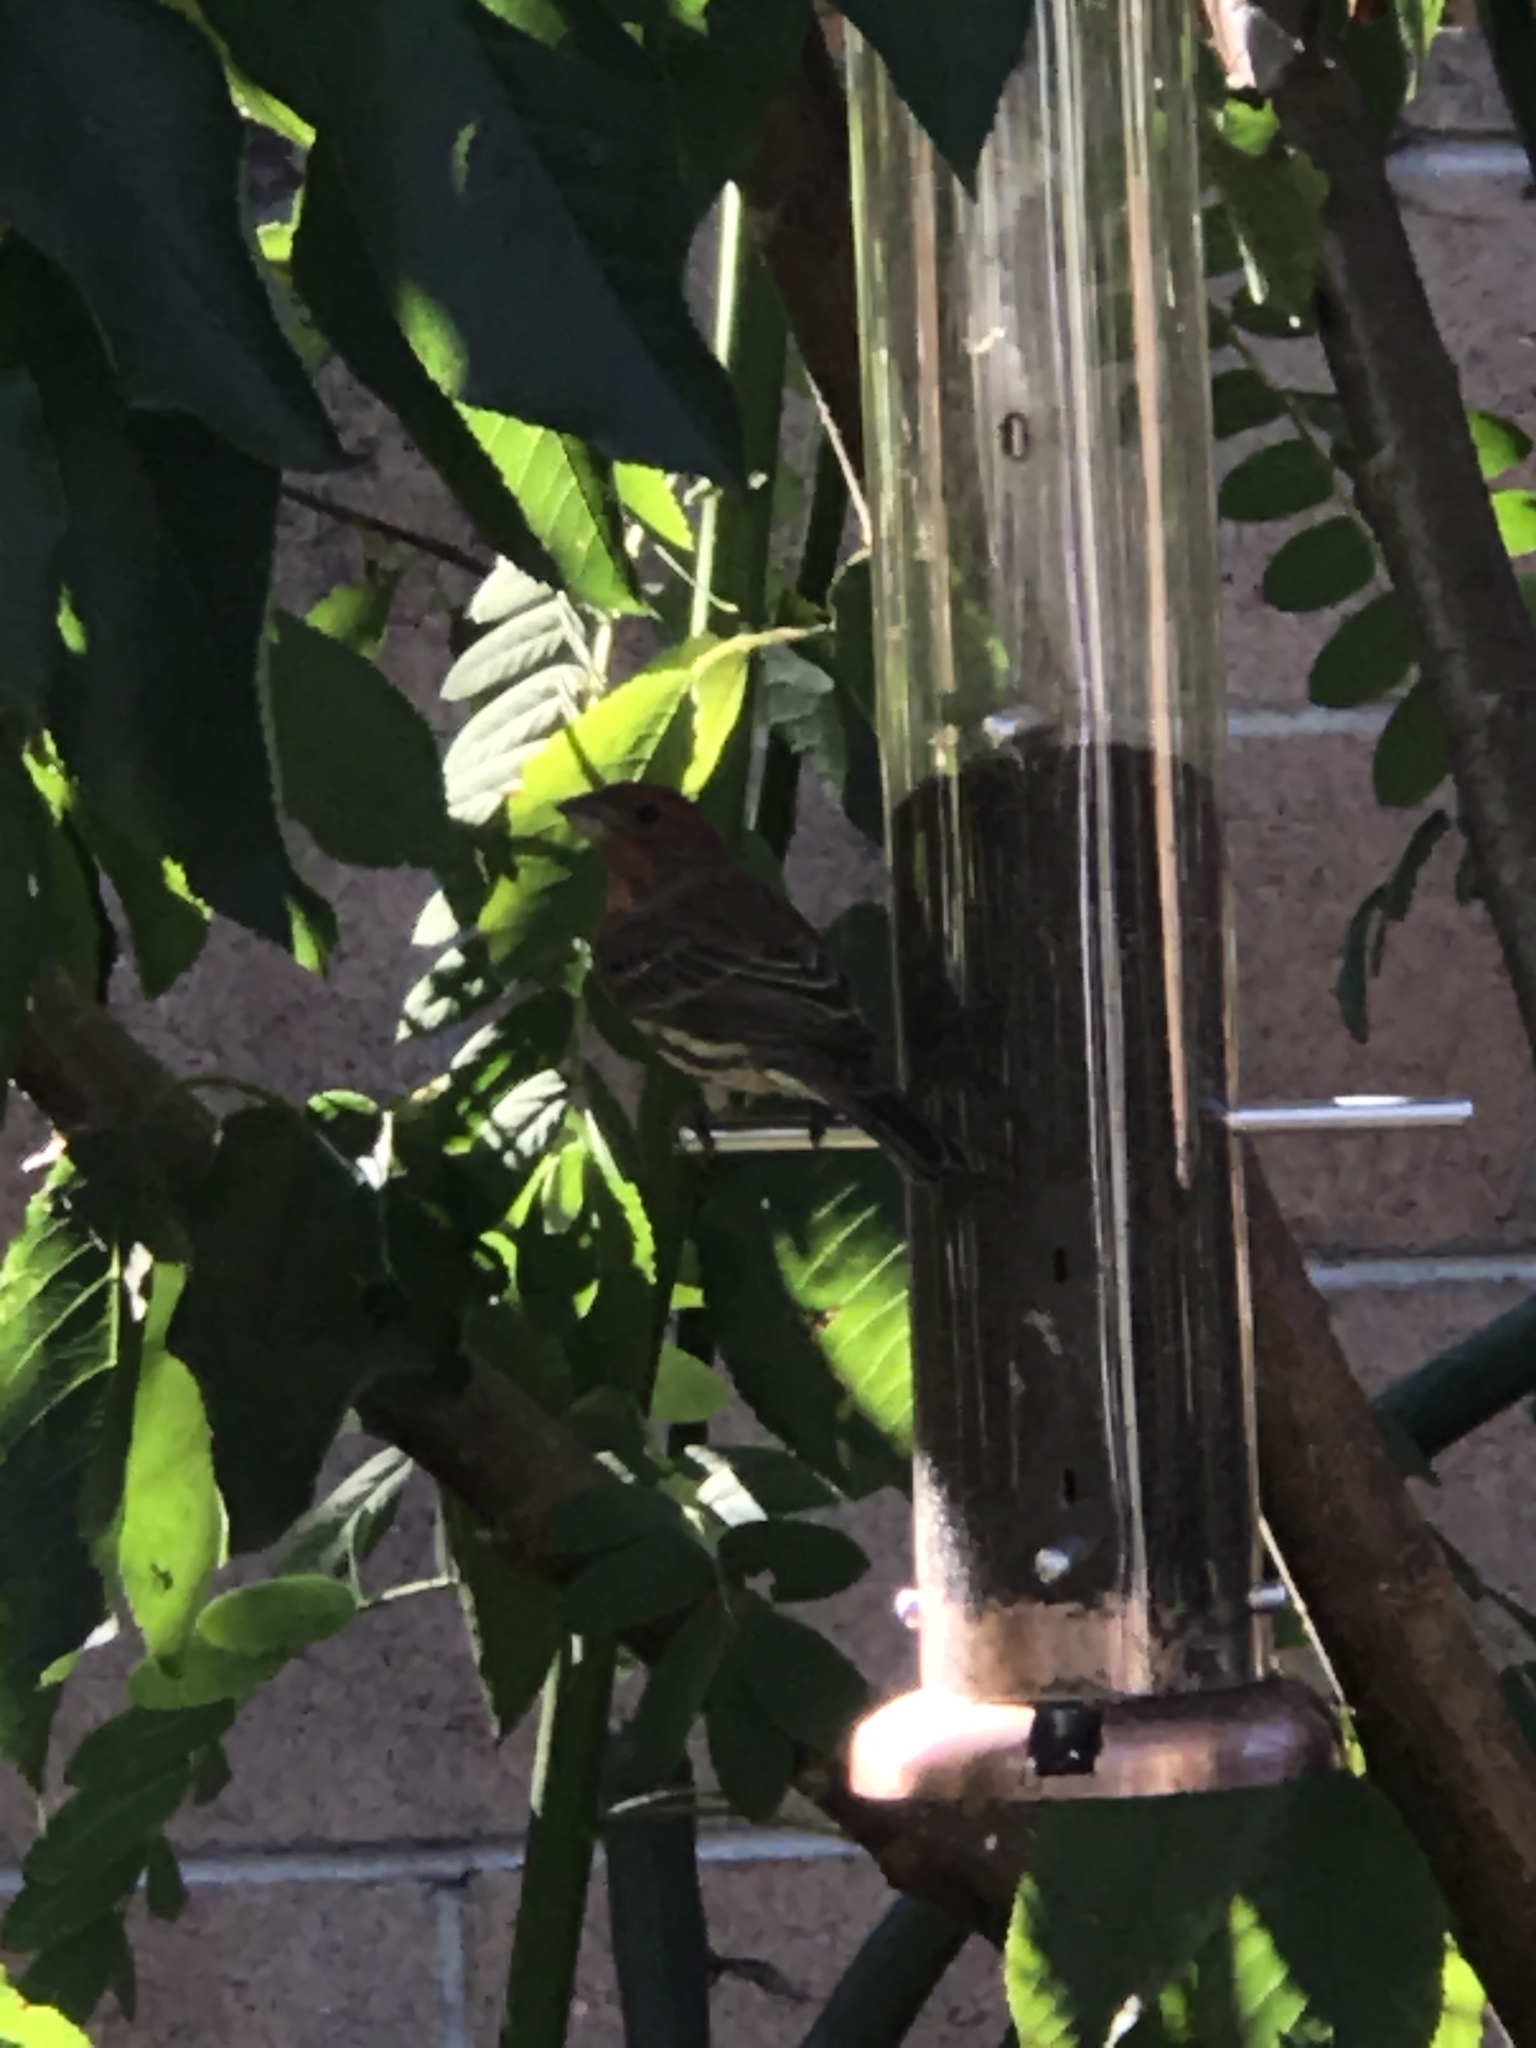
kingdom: Animalia
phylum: Chordata
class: Aves
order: Passeriformes
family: Fringillidae
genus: Haemorhous
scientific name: Haemorhous mexicanus
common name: House finch
